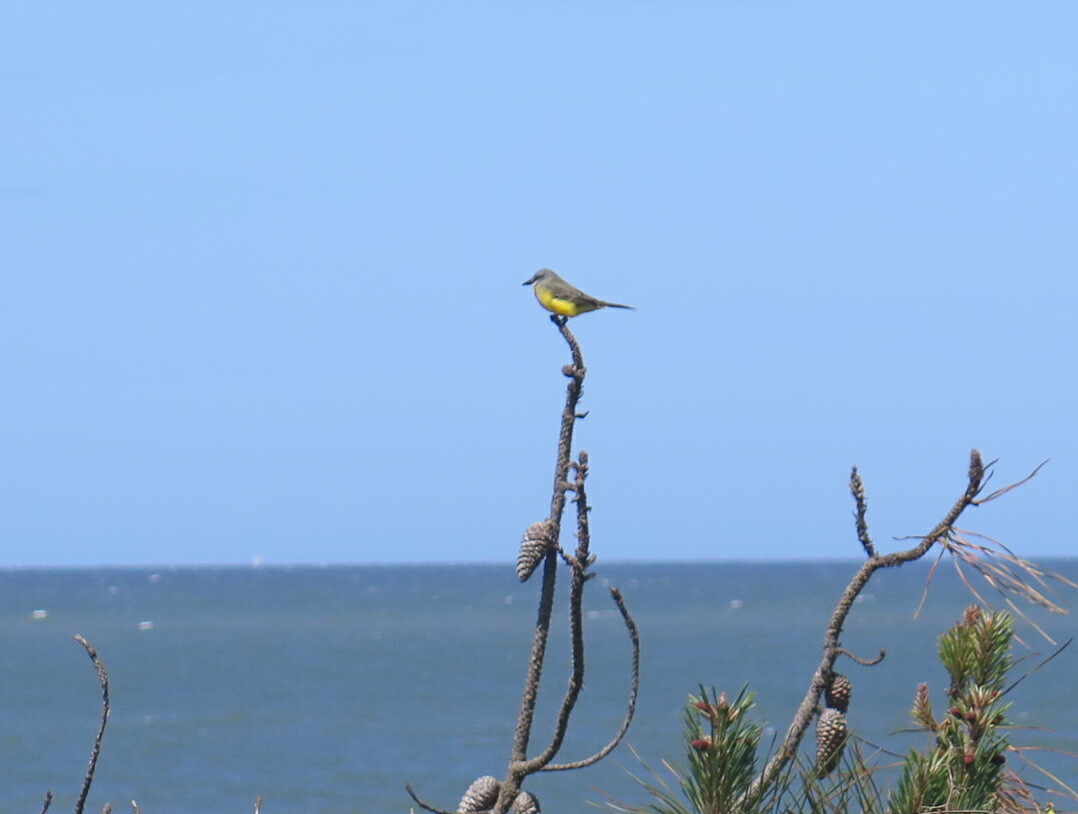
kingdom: Animalia
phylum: Chordata
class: Aves
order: Passeriformes
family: Tyrannidae
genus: Tyrannus
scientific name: Tyrannus melancholicus
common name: Tropical kingbird
